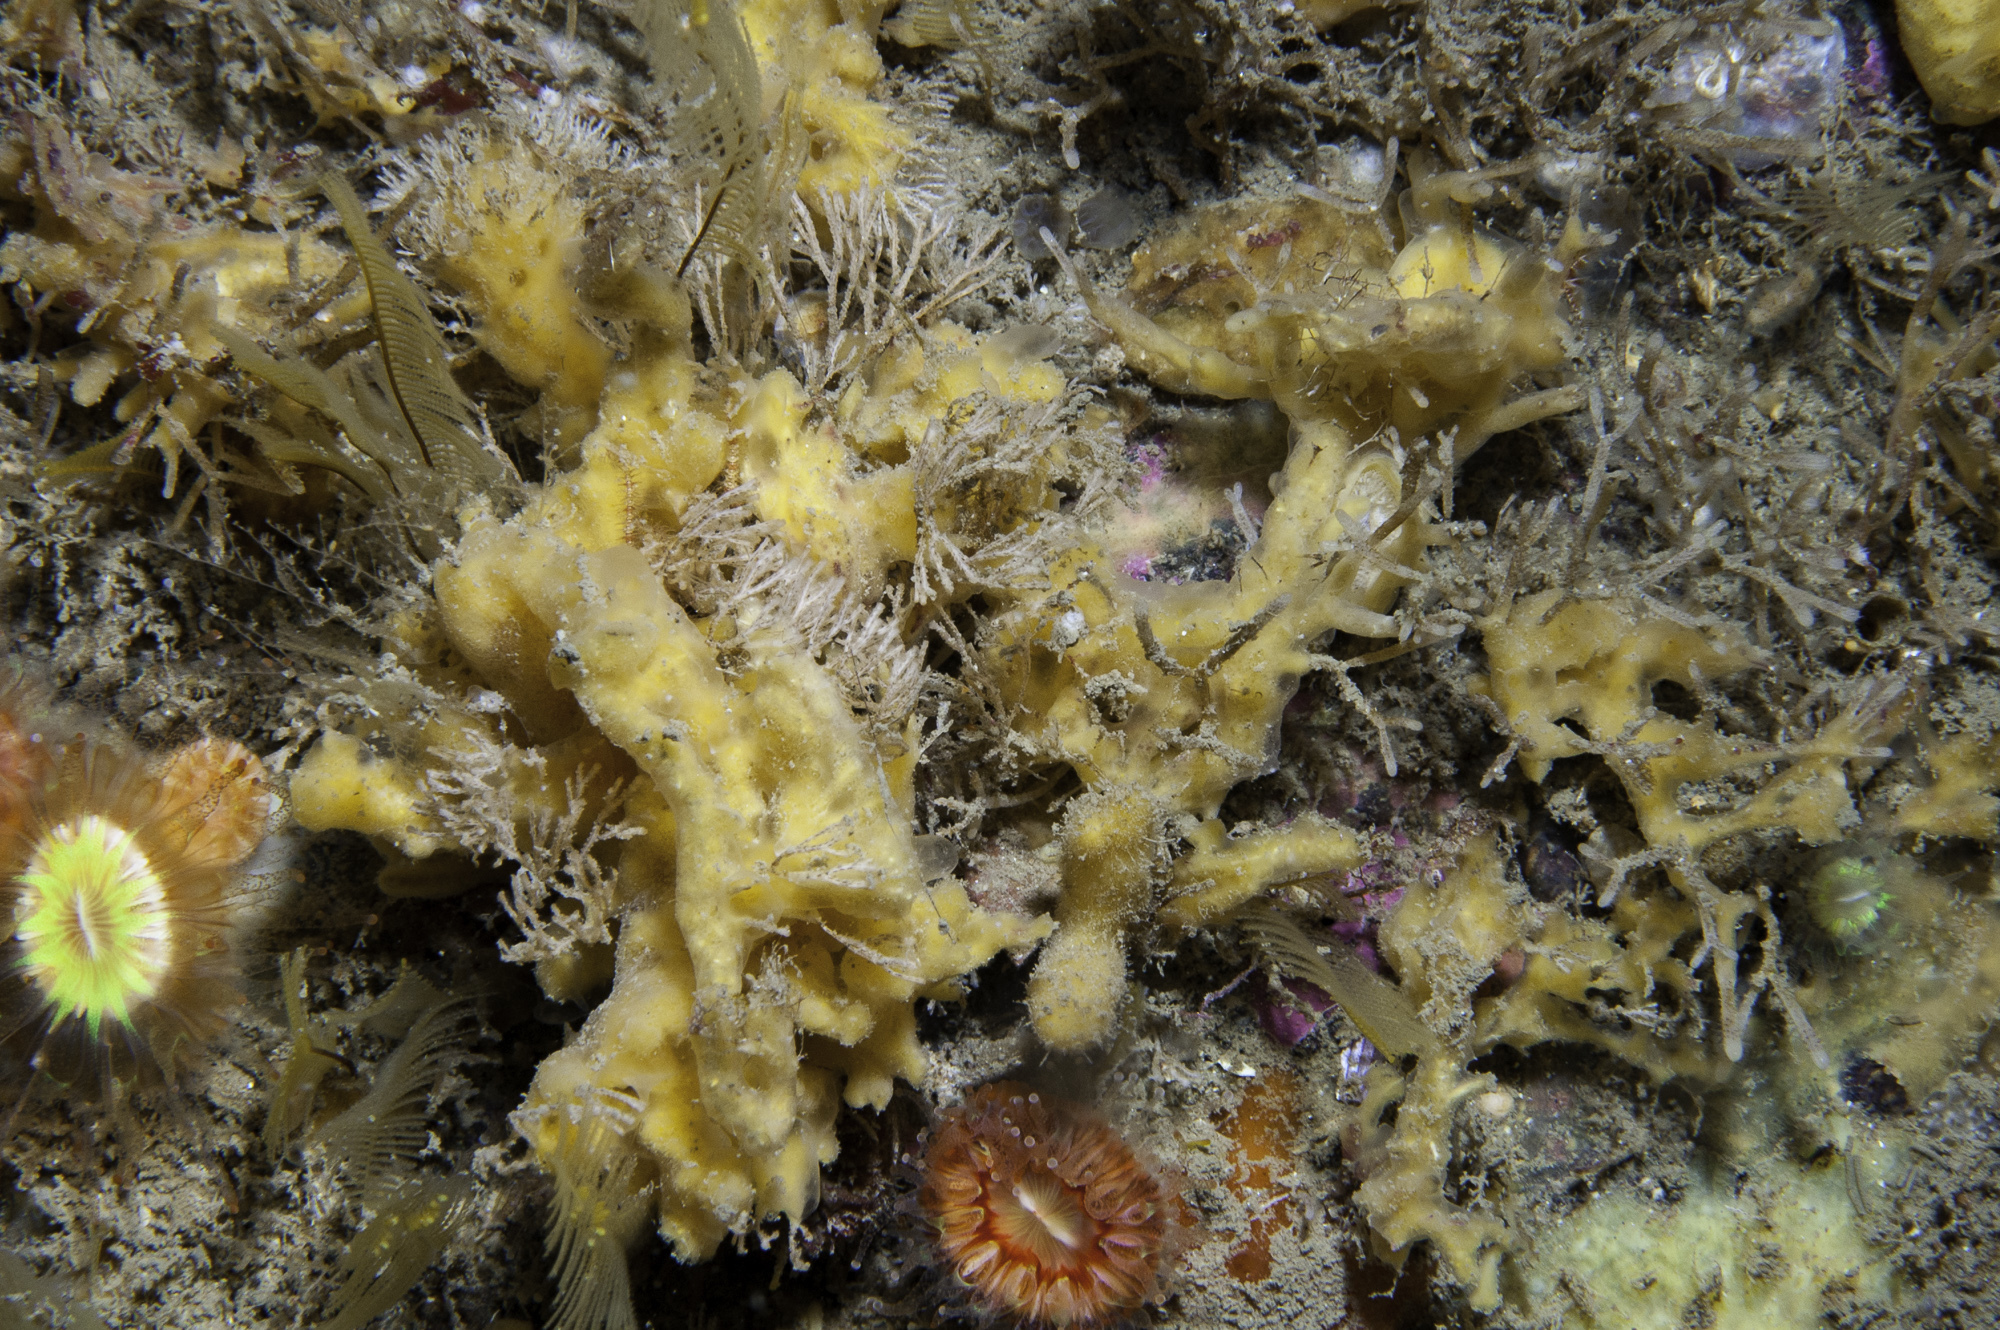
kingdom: Animalia
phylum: Porifera
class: Demospongiae
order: Poecilosclerida
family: Acarnidae
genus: Iophon
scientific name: Iophon hyndmani
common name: Hyndman's horny sponge
